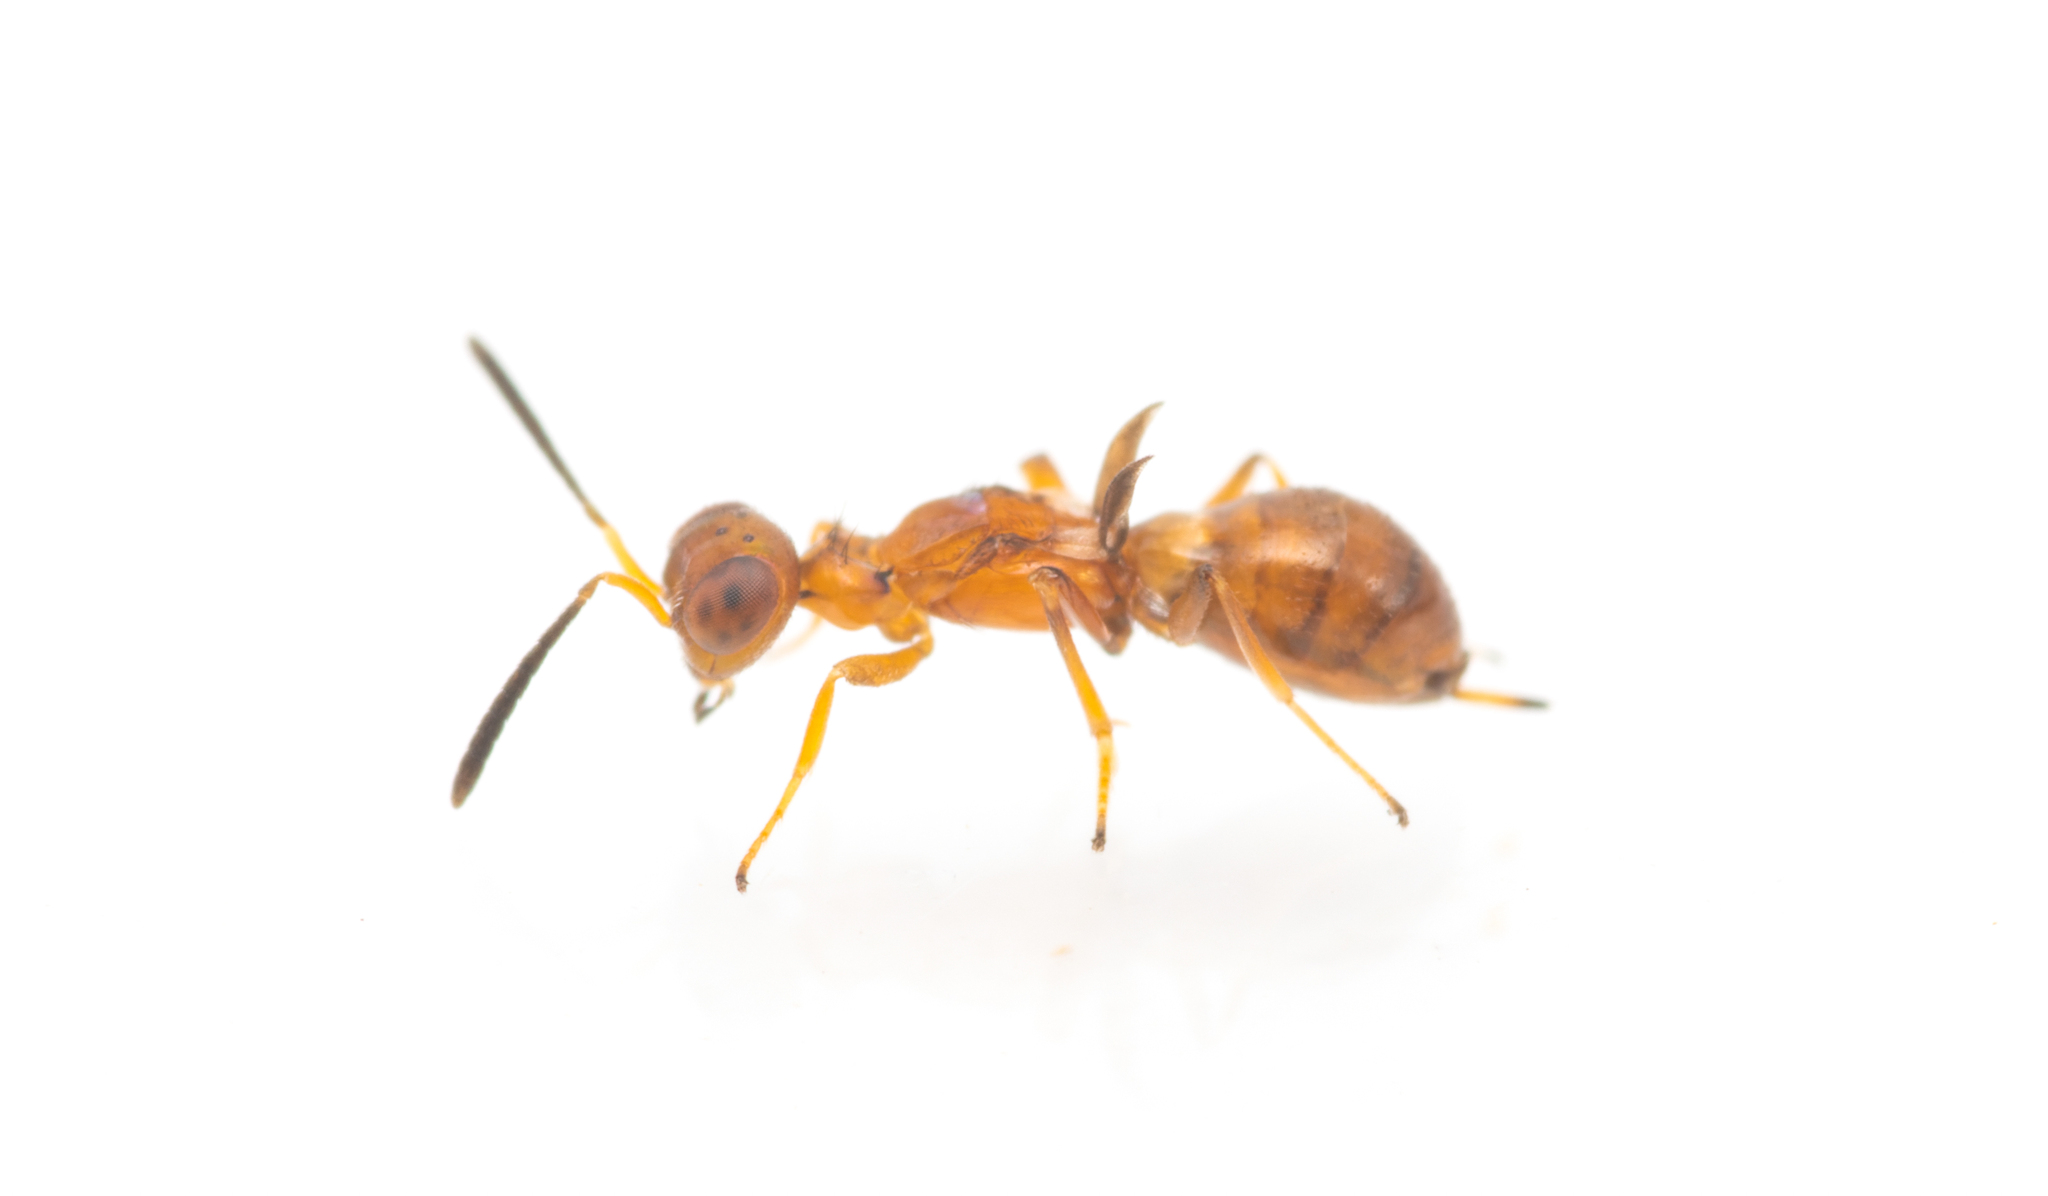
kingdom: Animalia
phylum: Arthropoda
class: Insecta
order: Hymenoptera
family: Eupelmidae
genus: Eupelmus
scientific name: Eupelmus aseculatus
